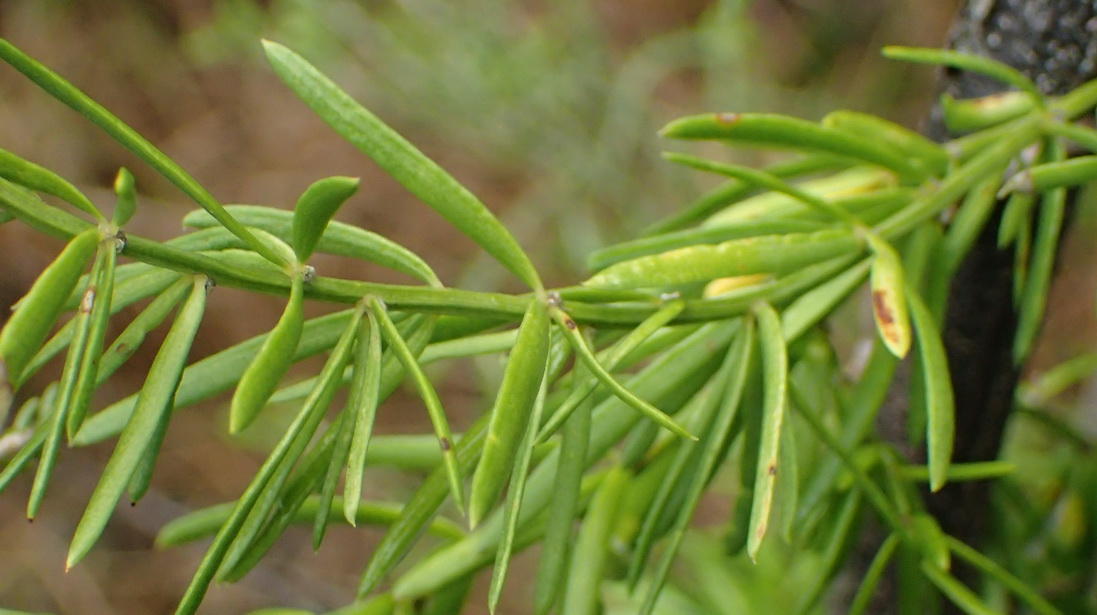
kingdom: Plantae
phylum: Tracheophyta
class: Liliopsida
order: Asparagales
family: Asparagaceae
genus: Asparagus
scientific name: Asparagus aethiopicus
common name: Sprenger's asparagus fern
